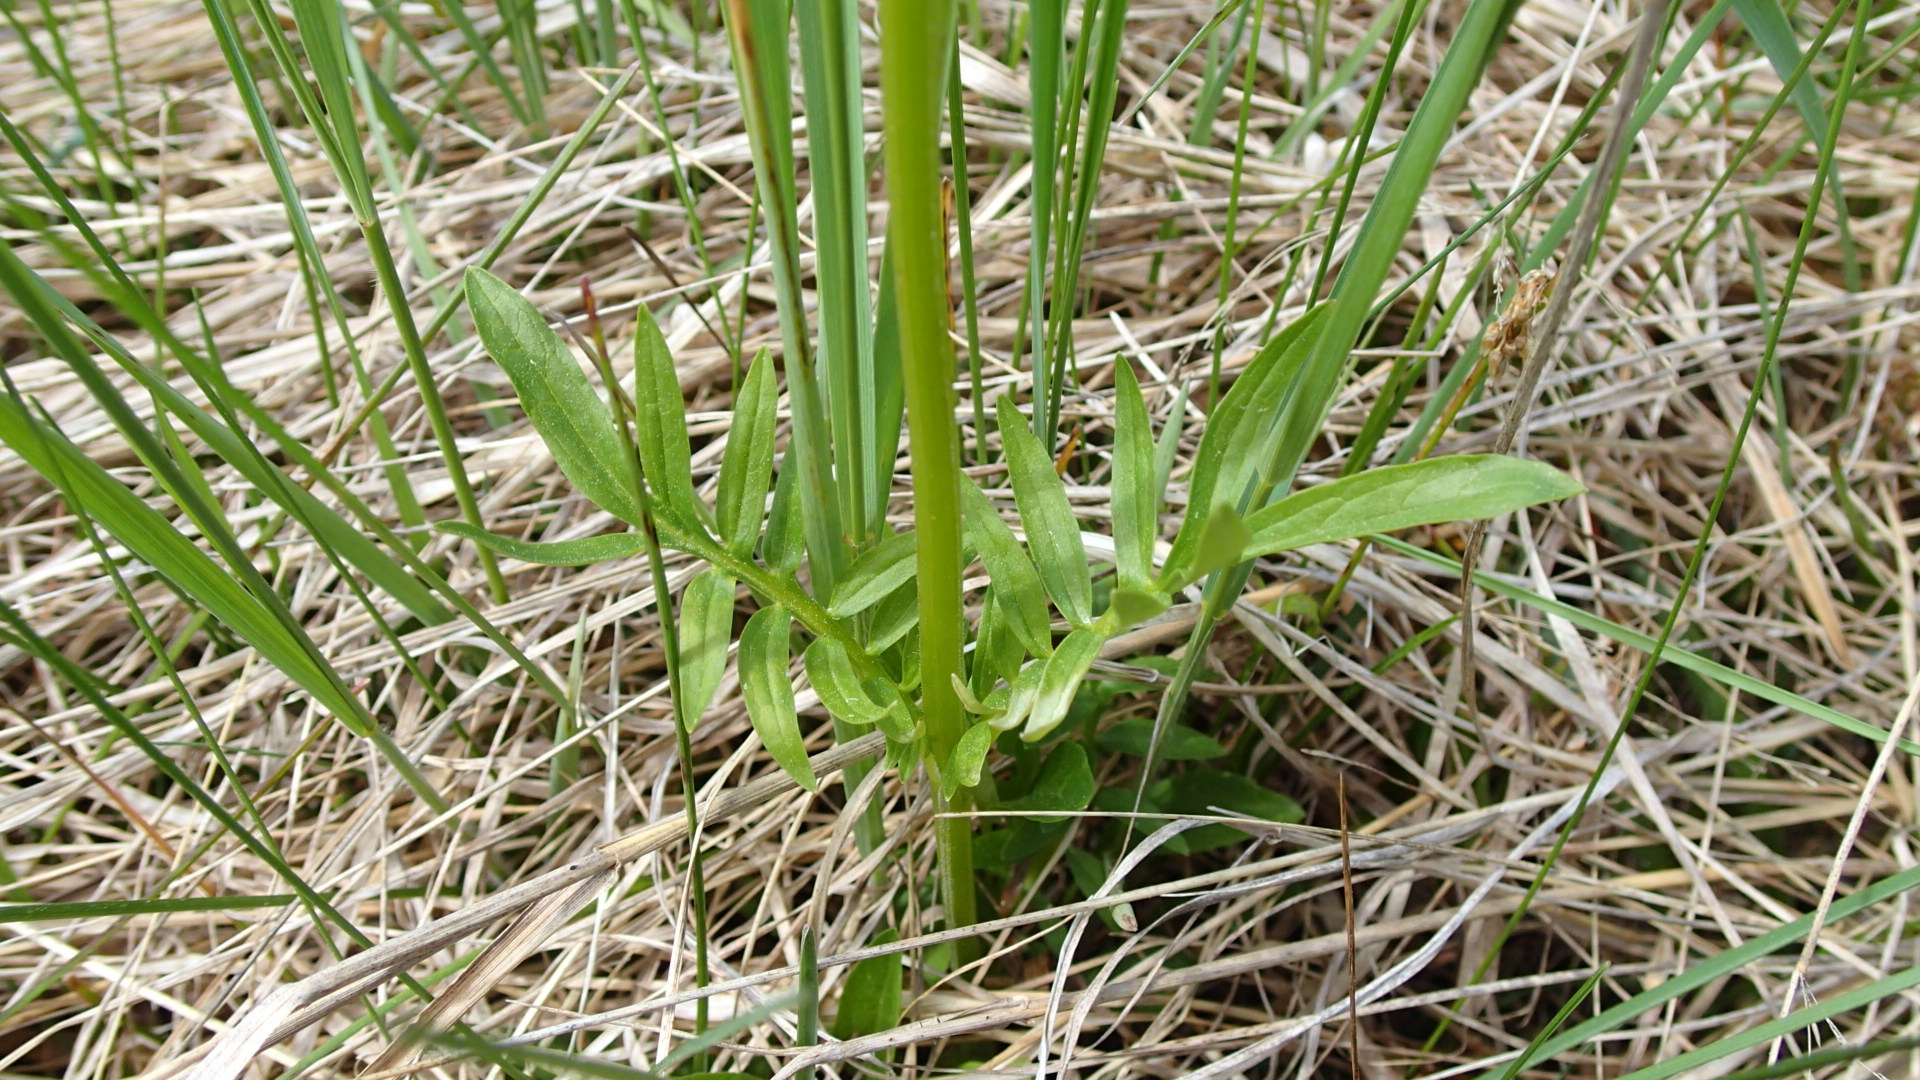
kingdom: Plantae
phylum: Tracheophyta
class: Magnoliopsida
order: Dipsacales
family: Caprifoliaceae
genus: Valeriana
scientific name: Valeriana uliginosa
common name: Marsh valerian
